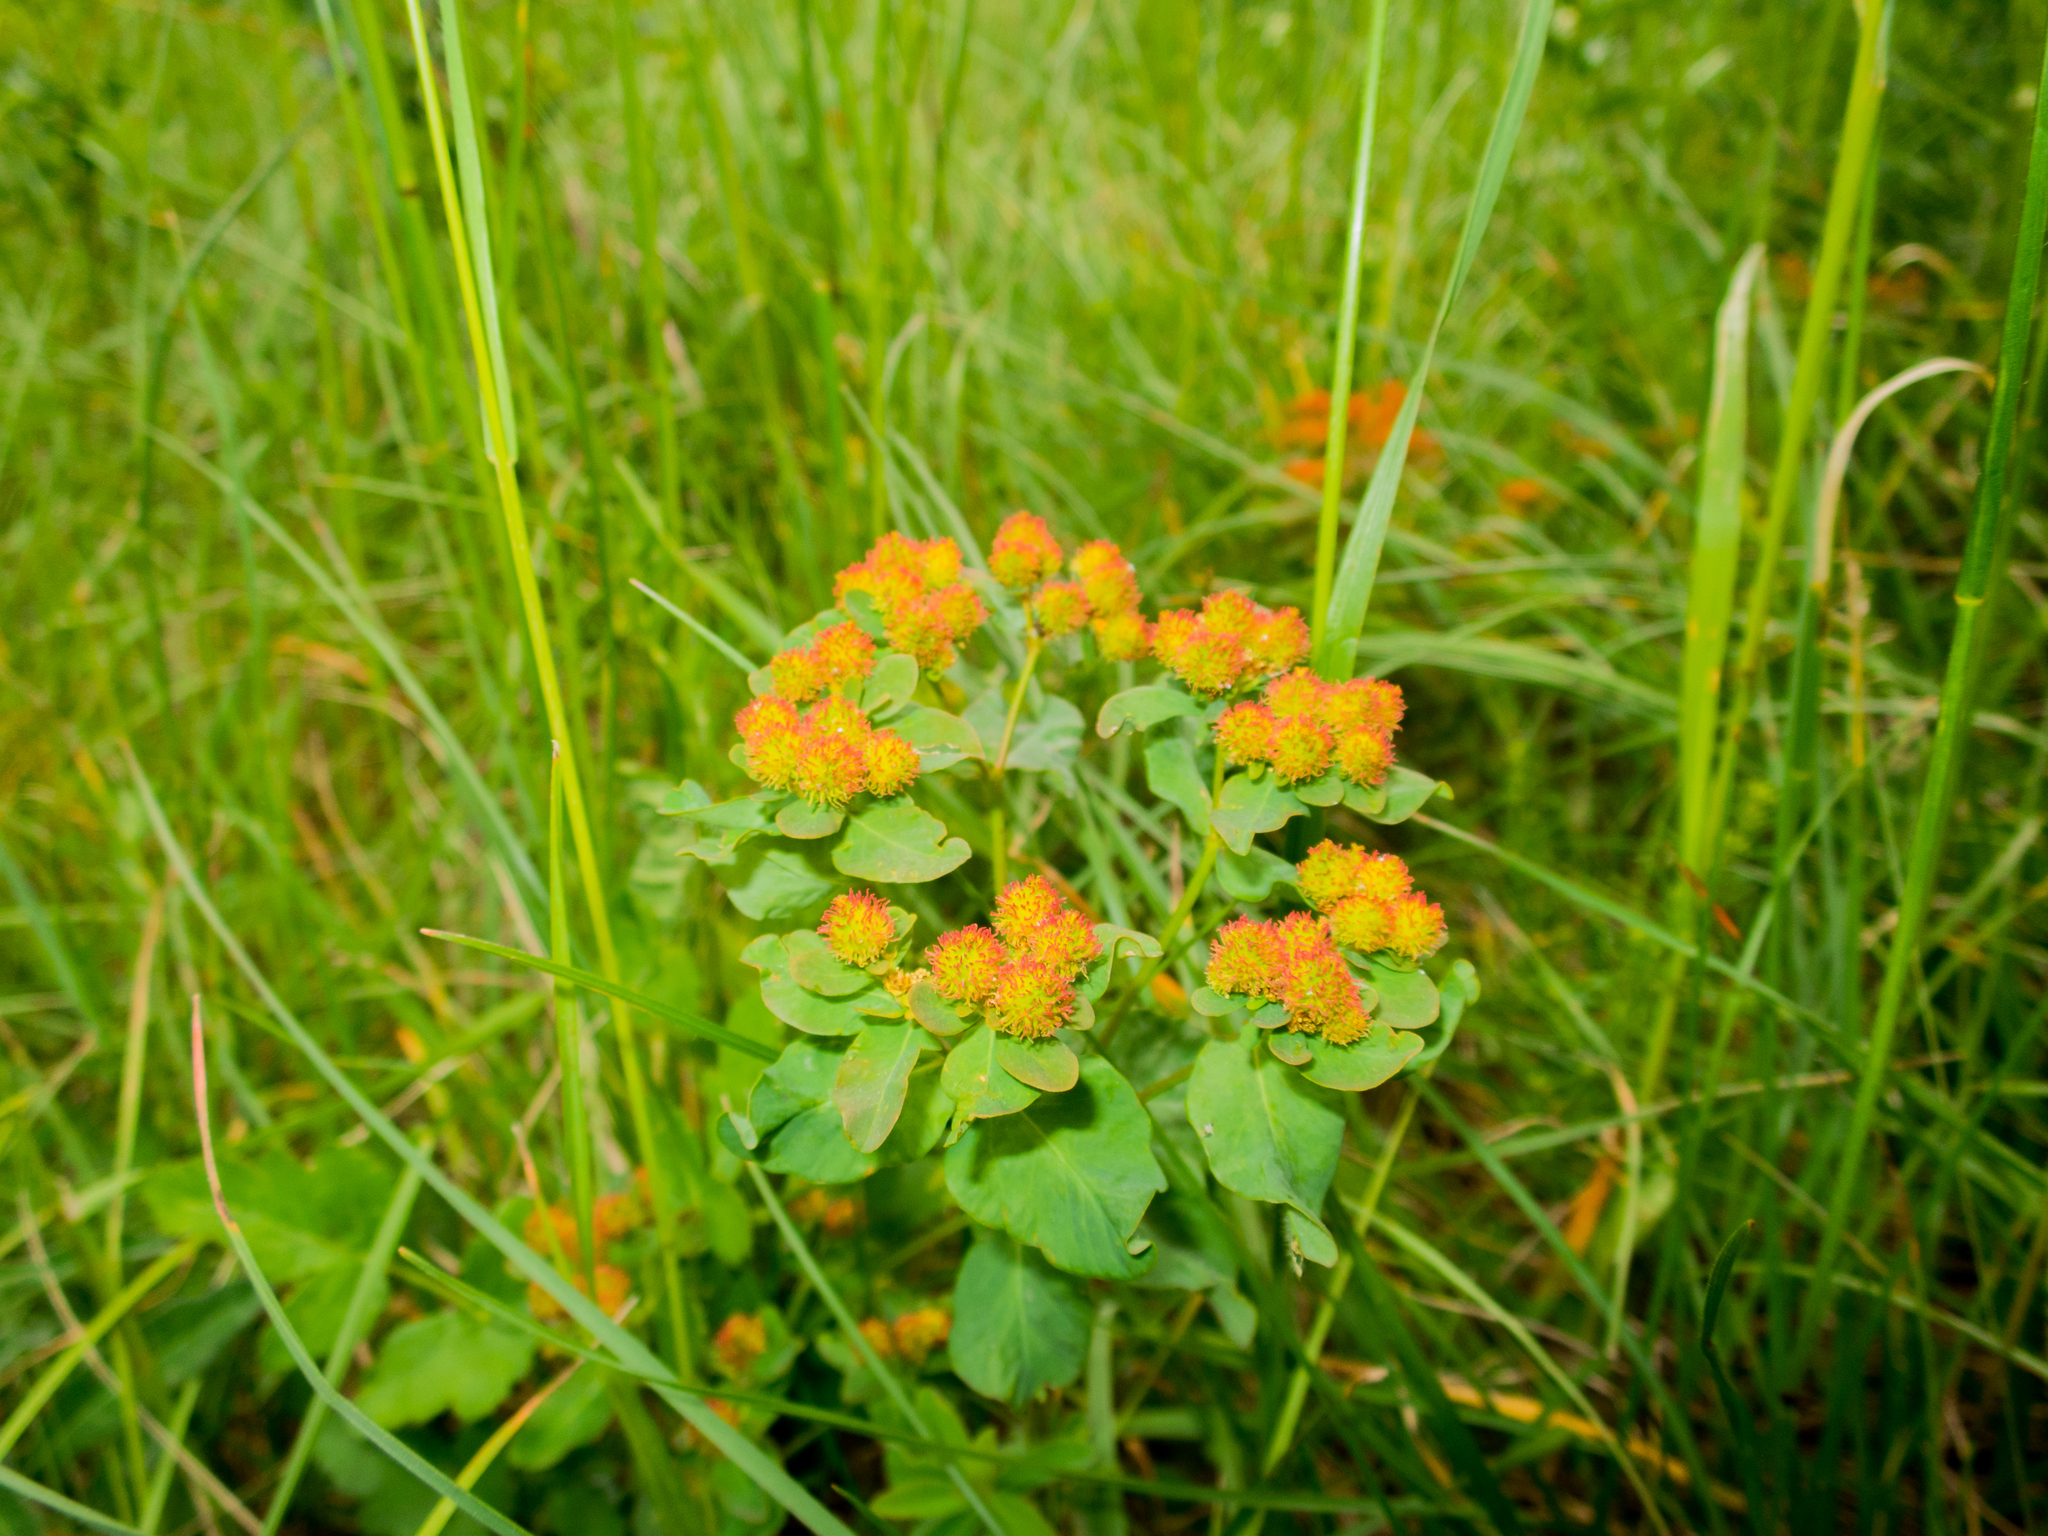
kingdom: Plantae
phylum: Tracheophyta
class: Magnoliopsida
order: Malpighiales
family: Euphorbiaceae
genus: Euphorbia
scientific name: Euphorbia epithymoides
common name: Cushion spurge
